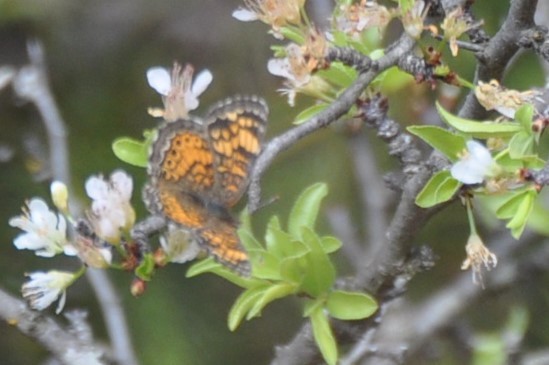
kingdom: Animalia
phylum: Arthropoda
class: Insecta
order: Lepidoptera
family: Nymphalidae
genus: Phyciodes
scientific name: Phyciodes tharos
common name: Pearl crescent
